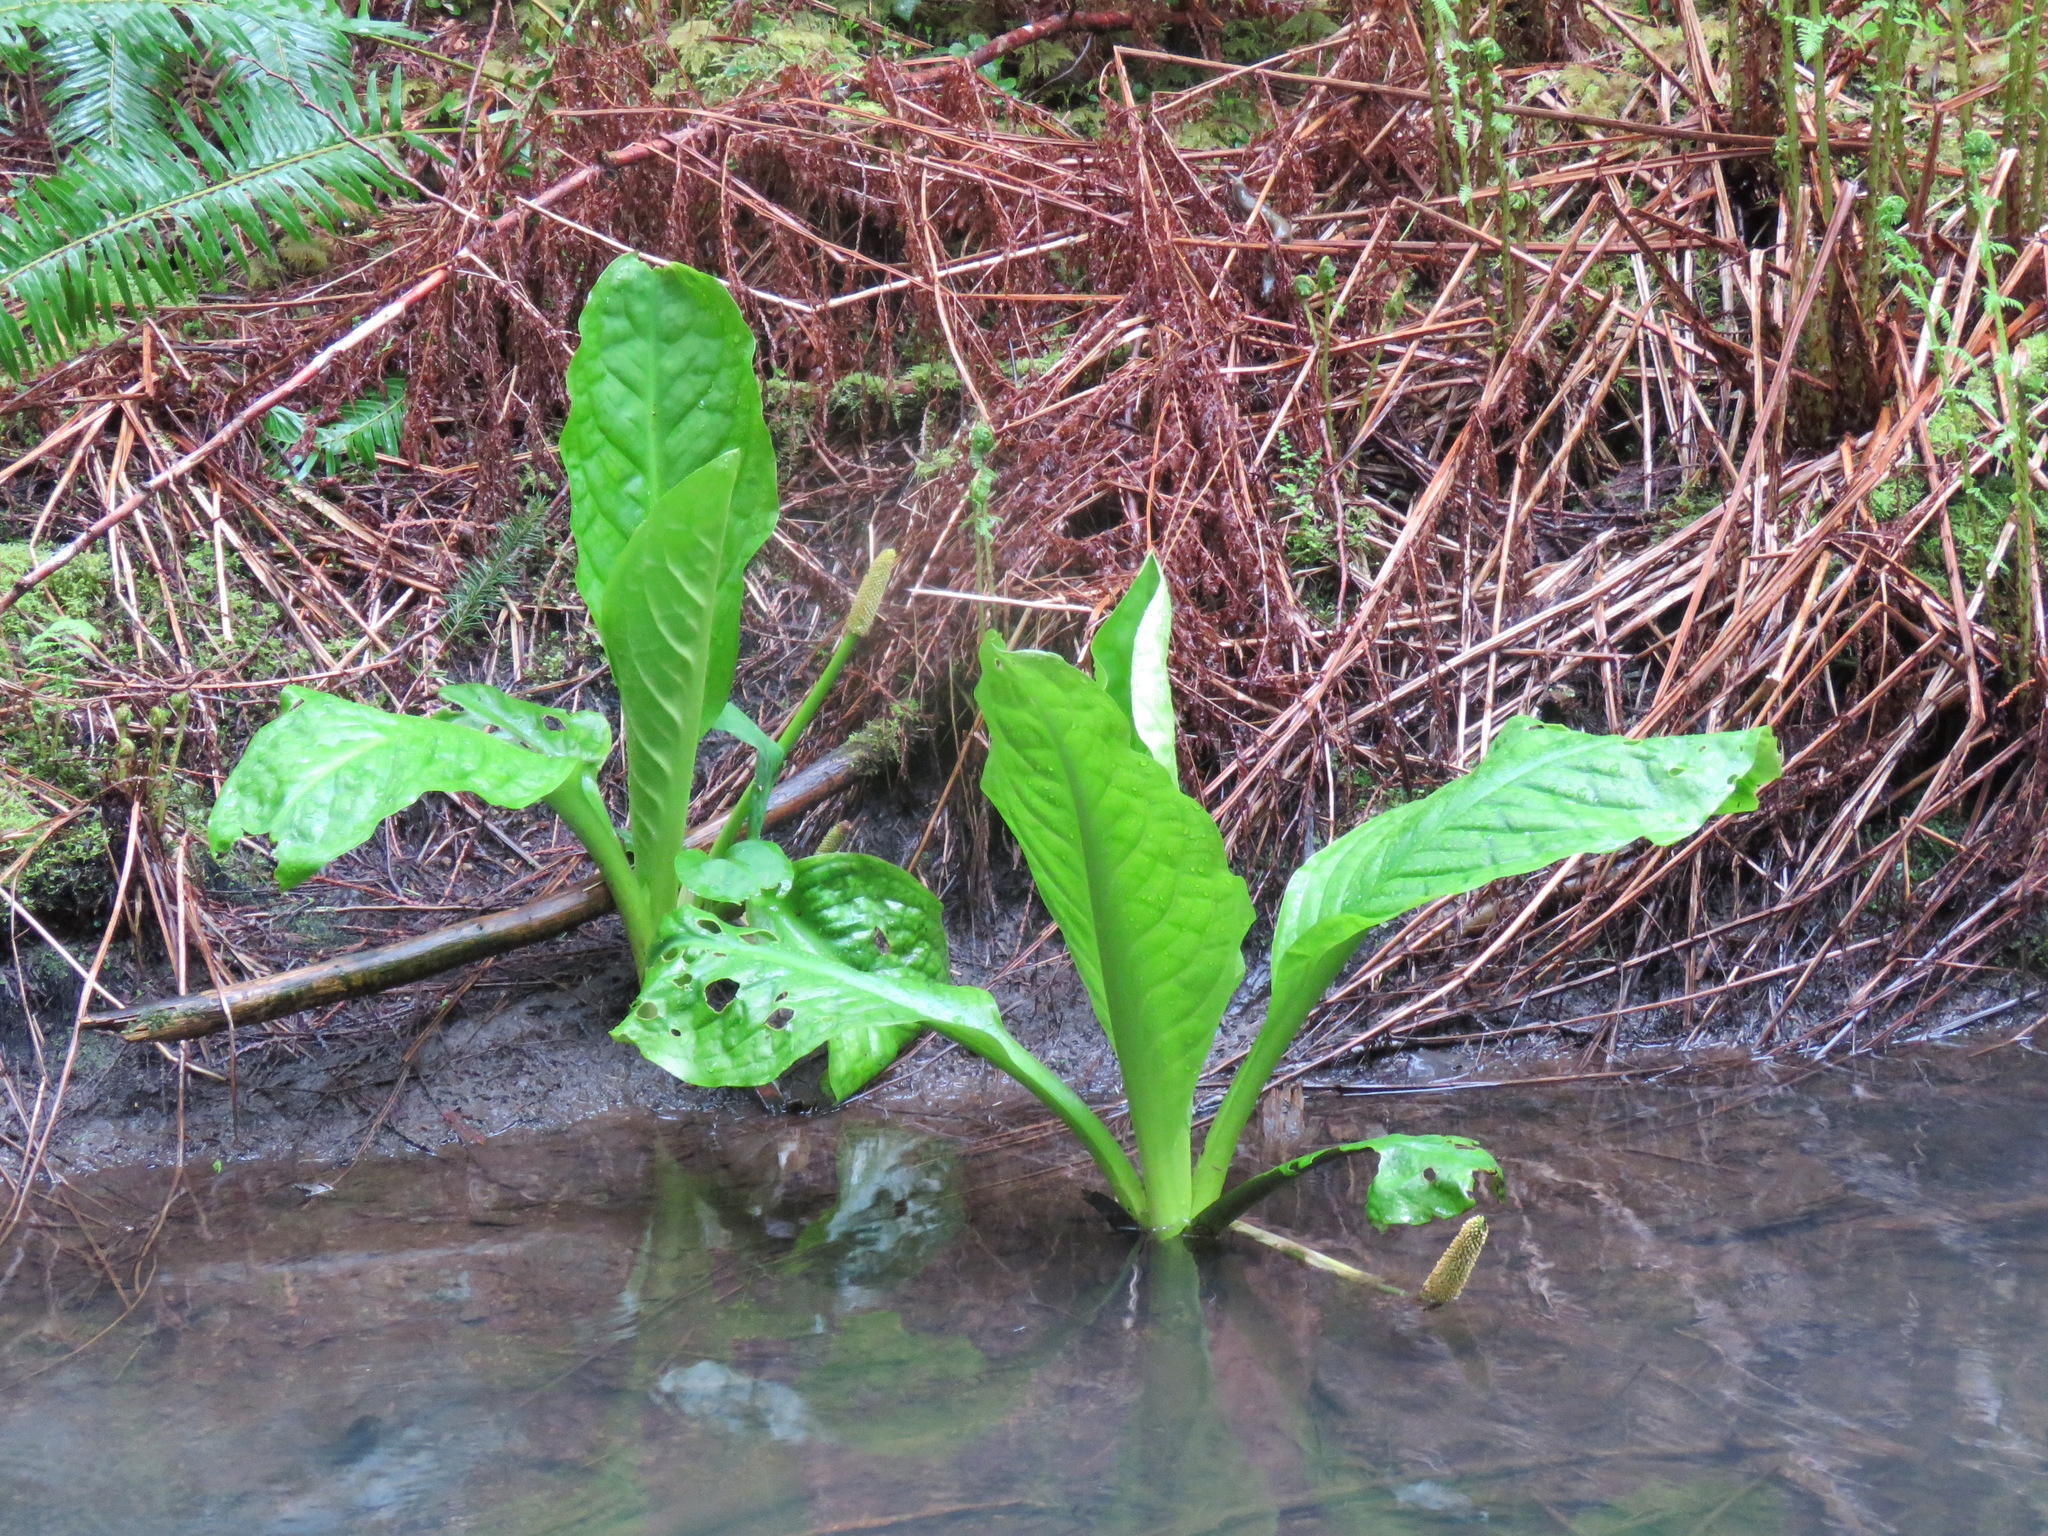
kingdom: Plantae
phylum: Tracheophyta
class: Liliopsida
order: Alismatales
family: Araceae
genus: Lysichiton
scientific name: Lysichiton americanus
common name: American skunk cabbage
